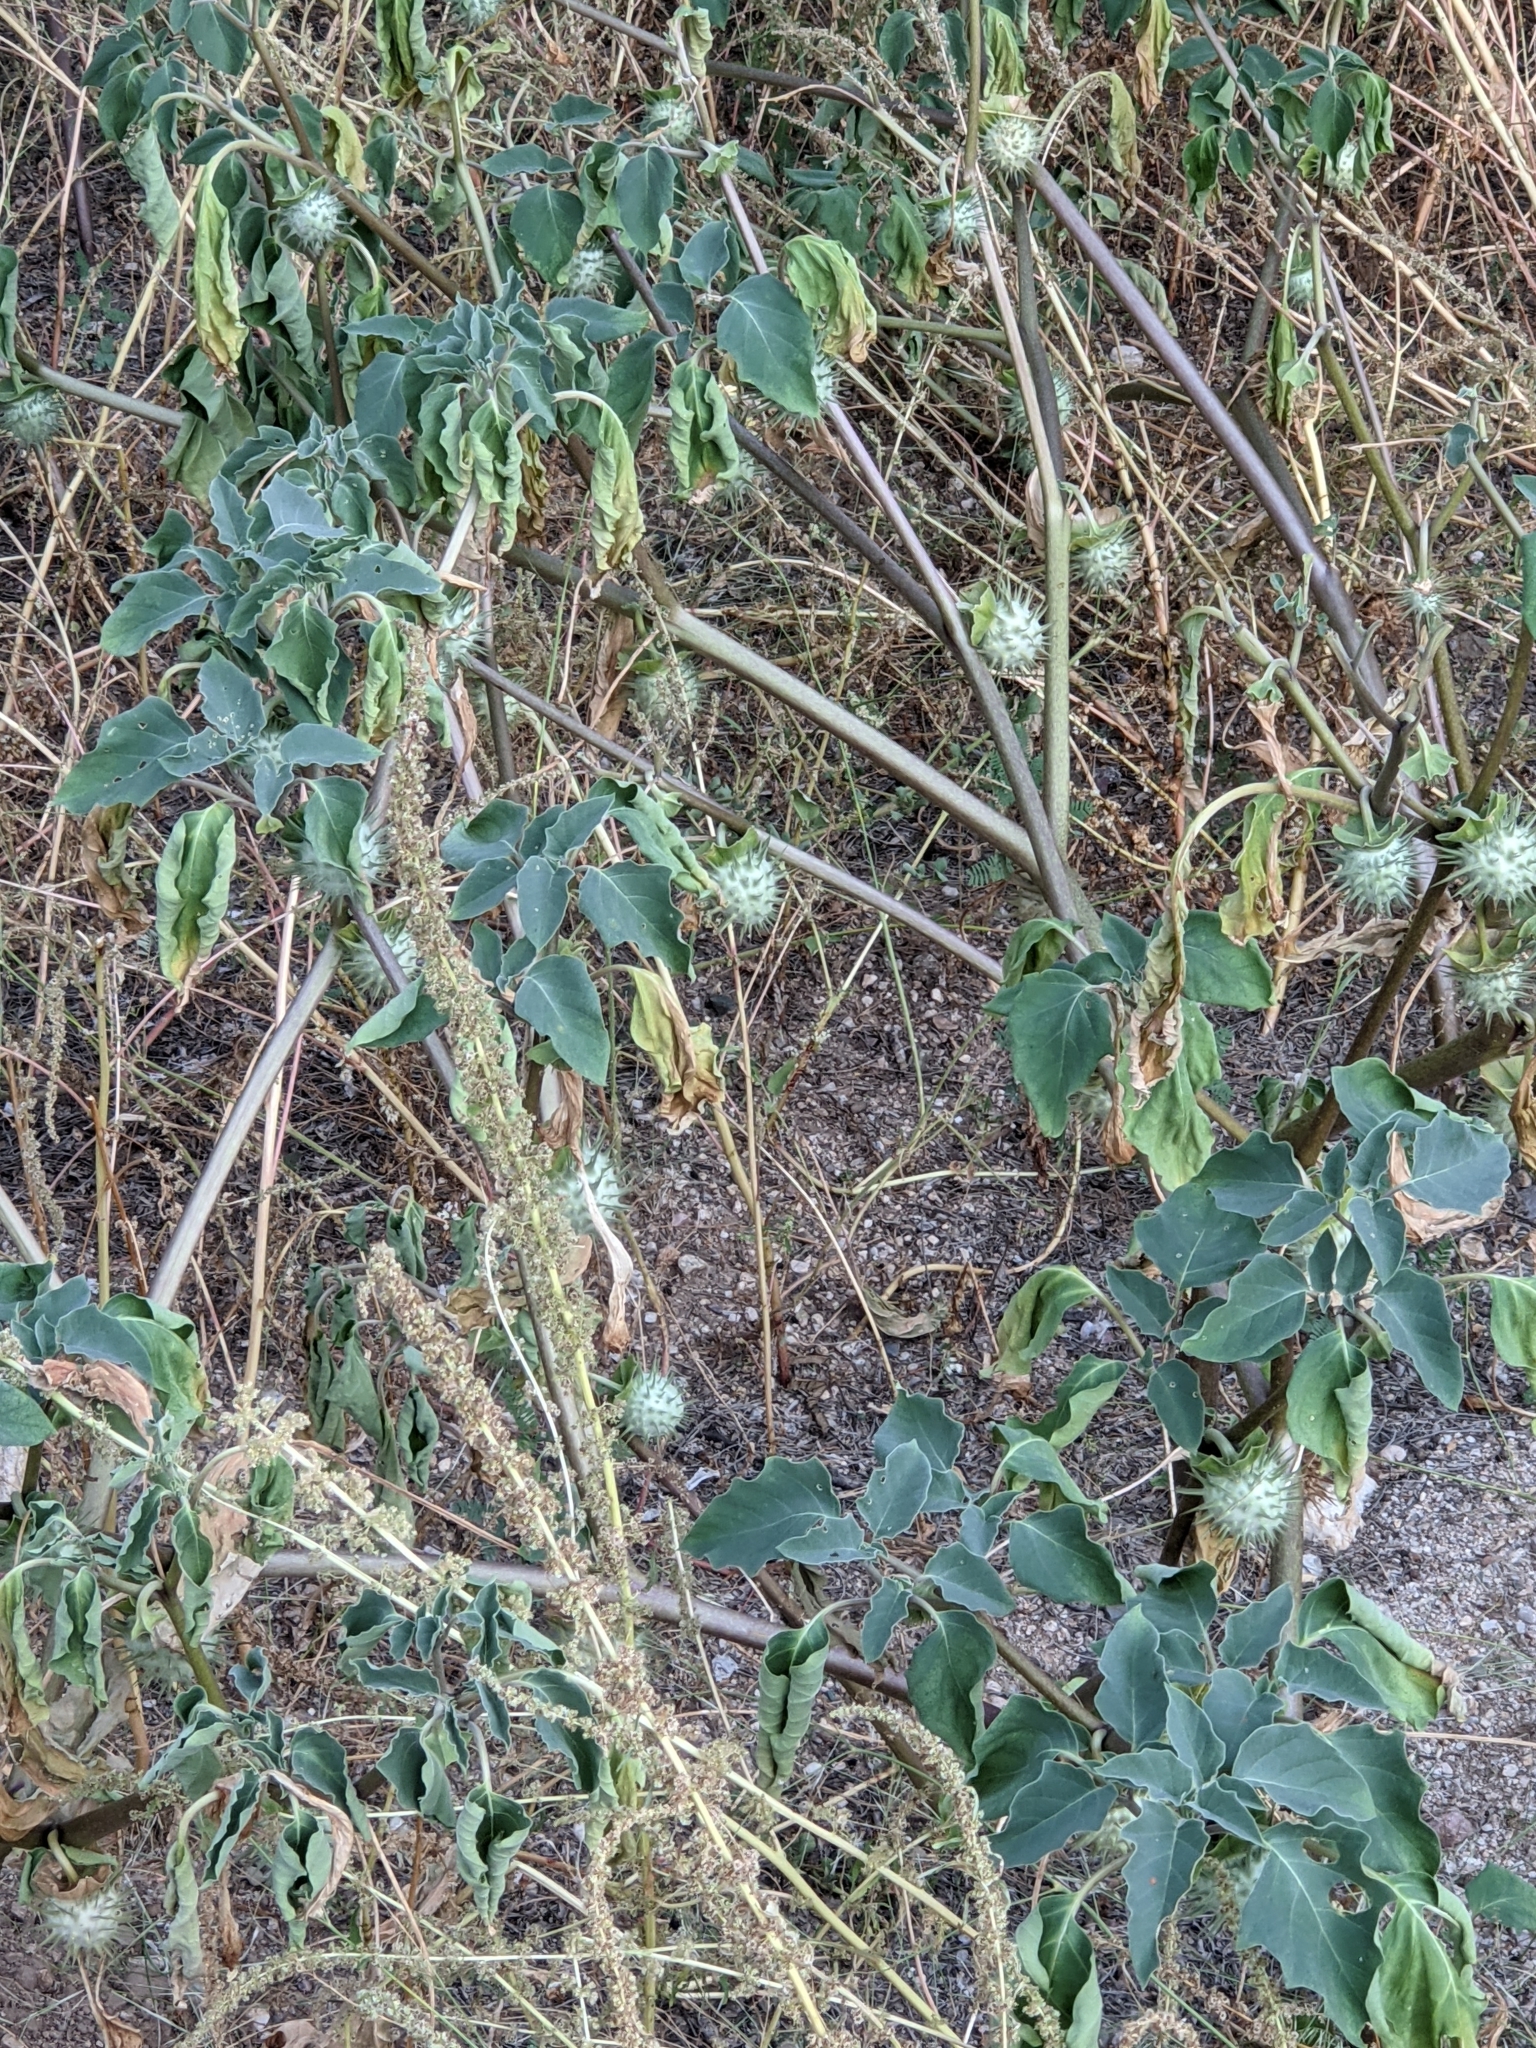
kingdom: Plantae
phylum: Tracheophyta
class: Magnoliopsida
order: Solanales
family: Solanaceae
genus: Datura
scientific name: Datura discolor
